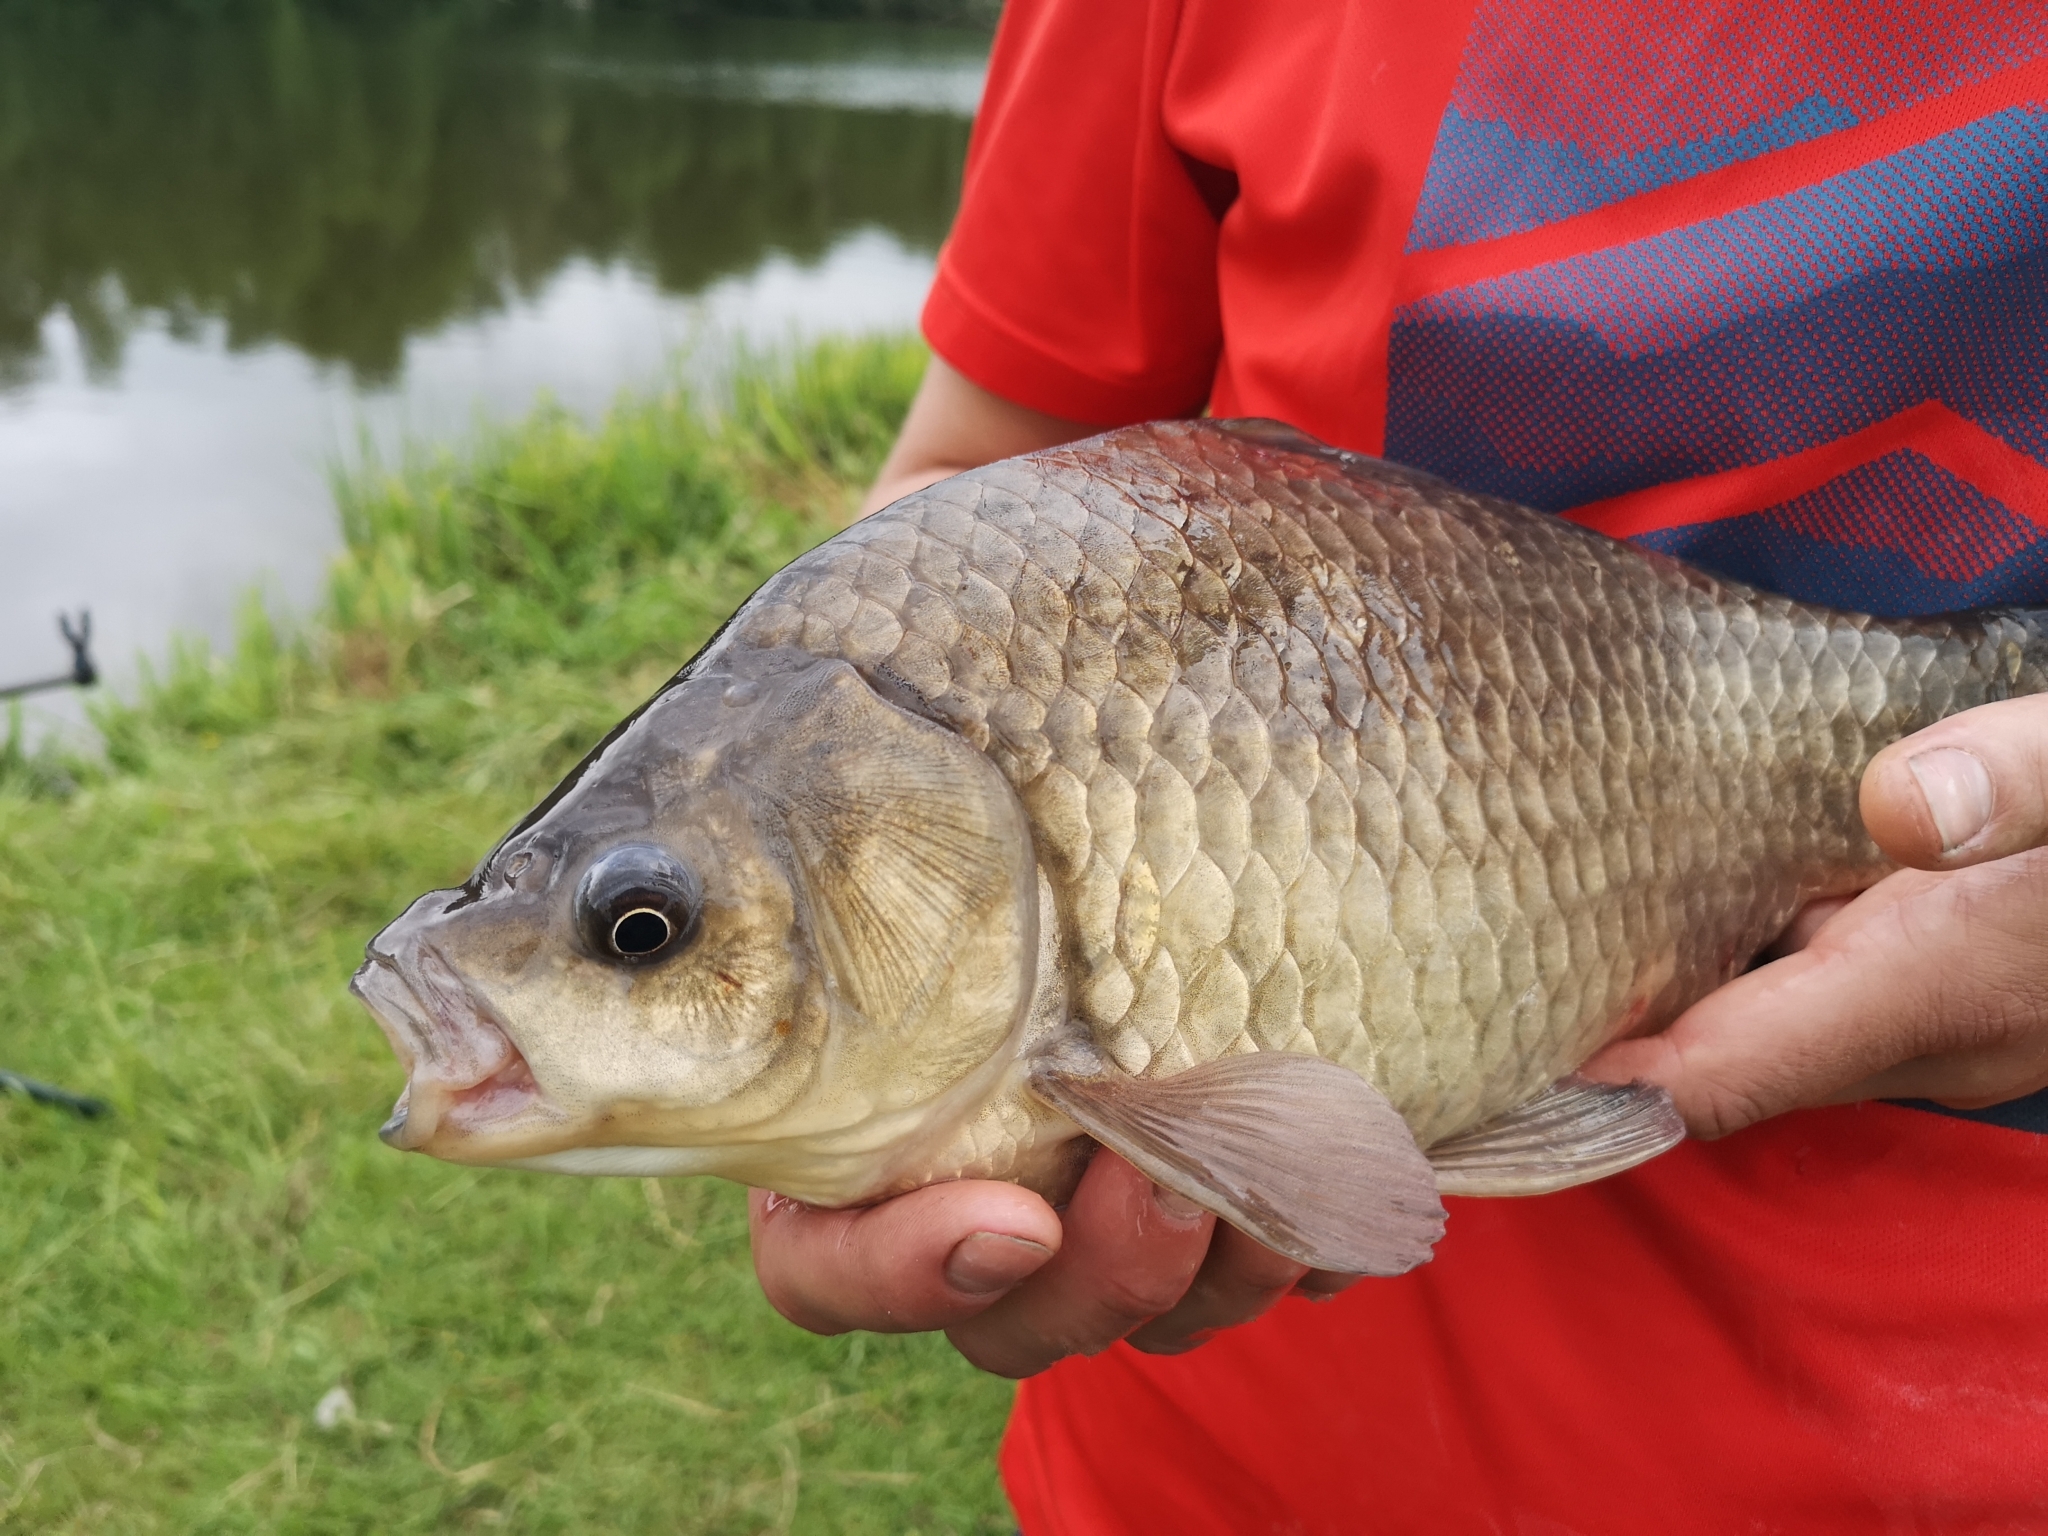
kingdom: Animalia
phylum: Chordata
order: Cypriniformes
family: Cyprinidae
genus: Carassius
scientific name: Carassius gibelio
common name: Prussian carp
